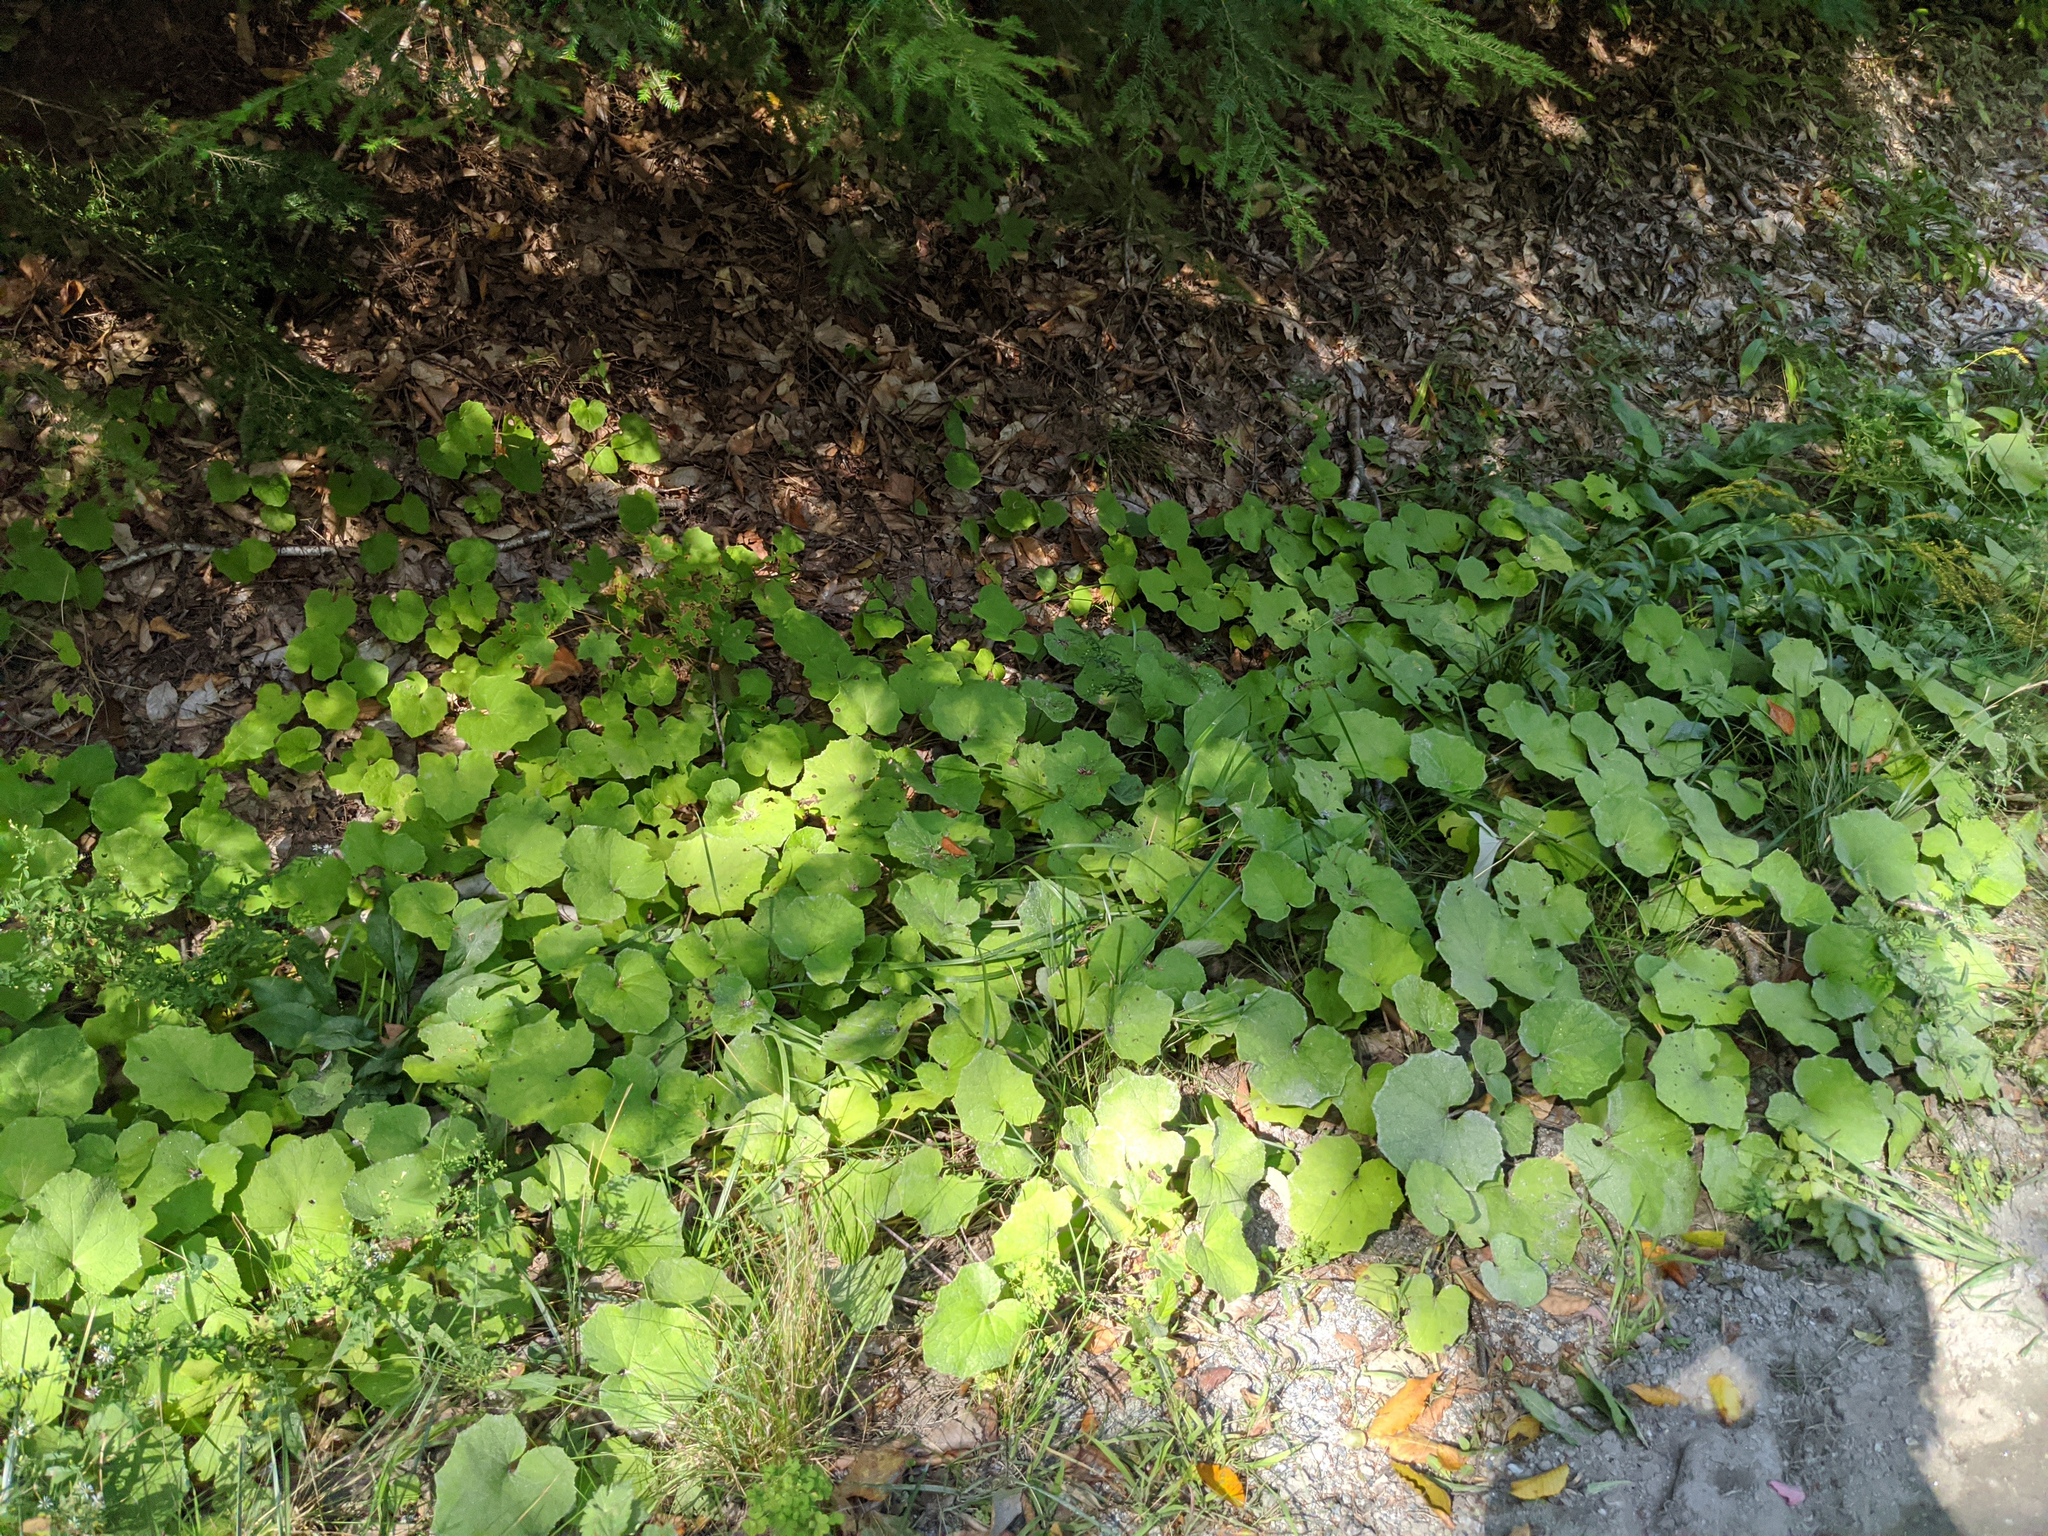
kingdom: Plantae
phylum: Tracheophyta
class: Magnoliopsida
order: Asterales
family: Asteraceae
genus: Tussilago
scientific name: Tussilago farfara
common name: Coltsfoot
